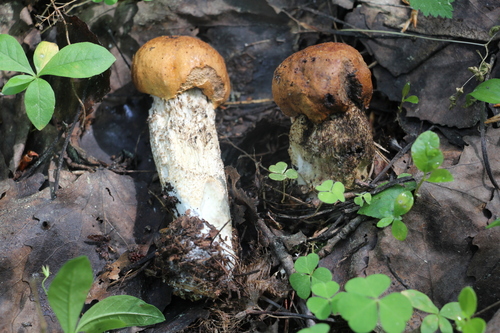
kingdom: Fungi
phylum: Basidiomycota
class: Agaricomycetes
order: Boletales
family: Boletaceae
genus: Leccinum
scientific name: Leccinum
